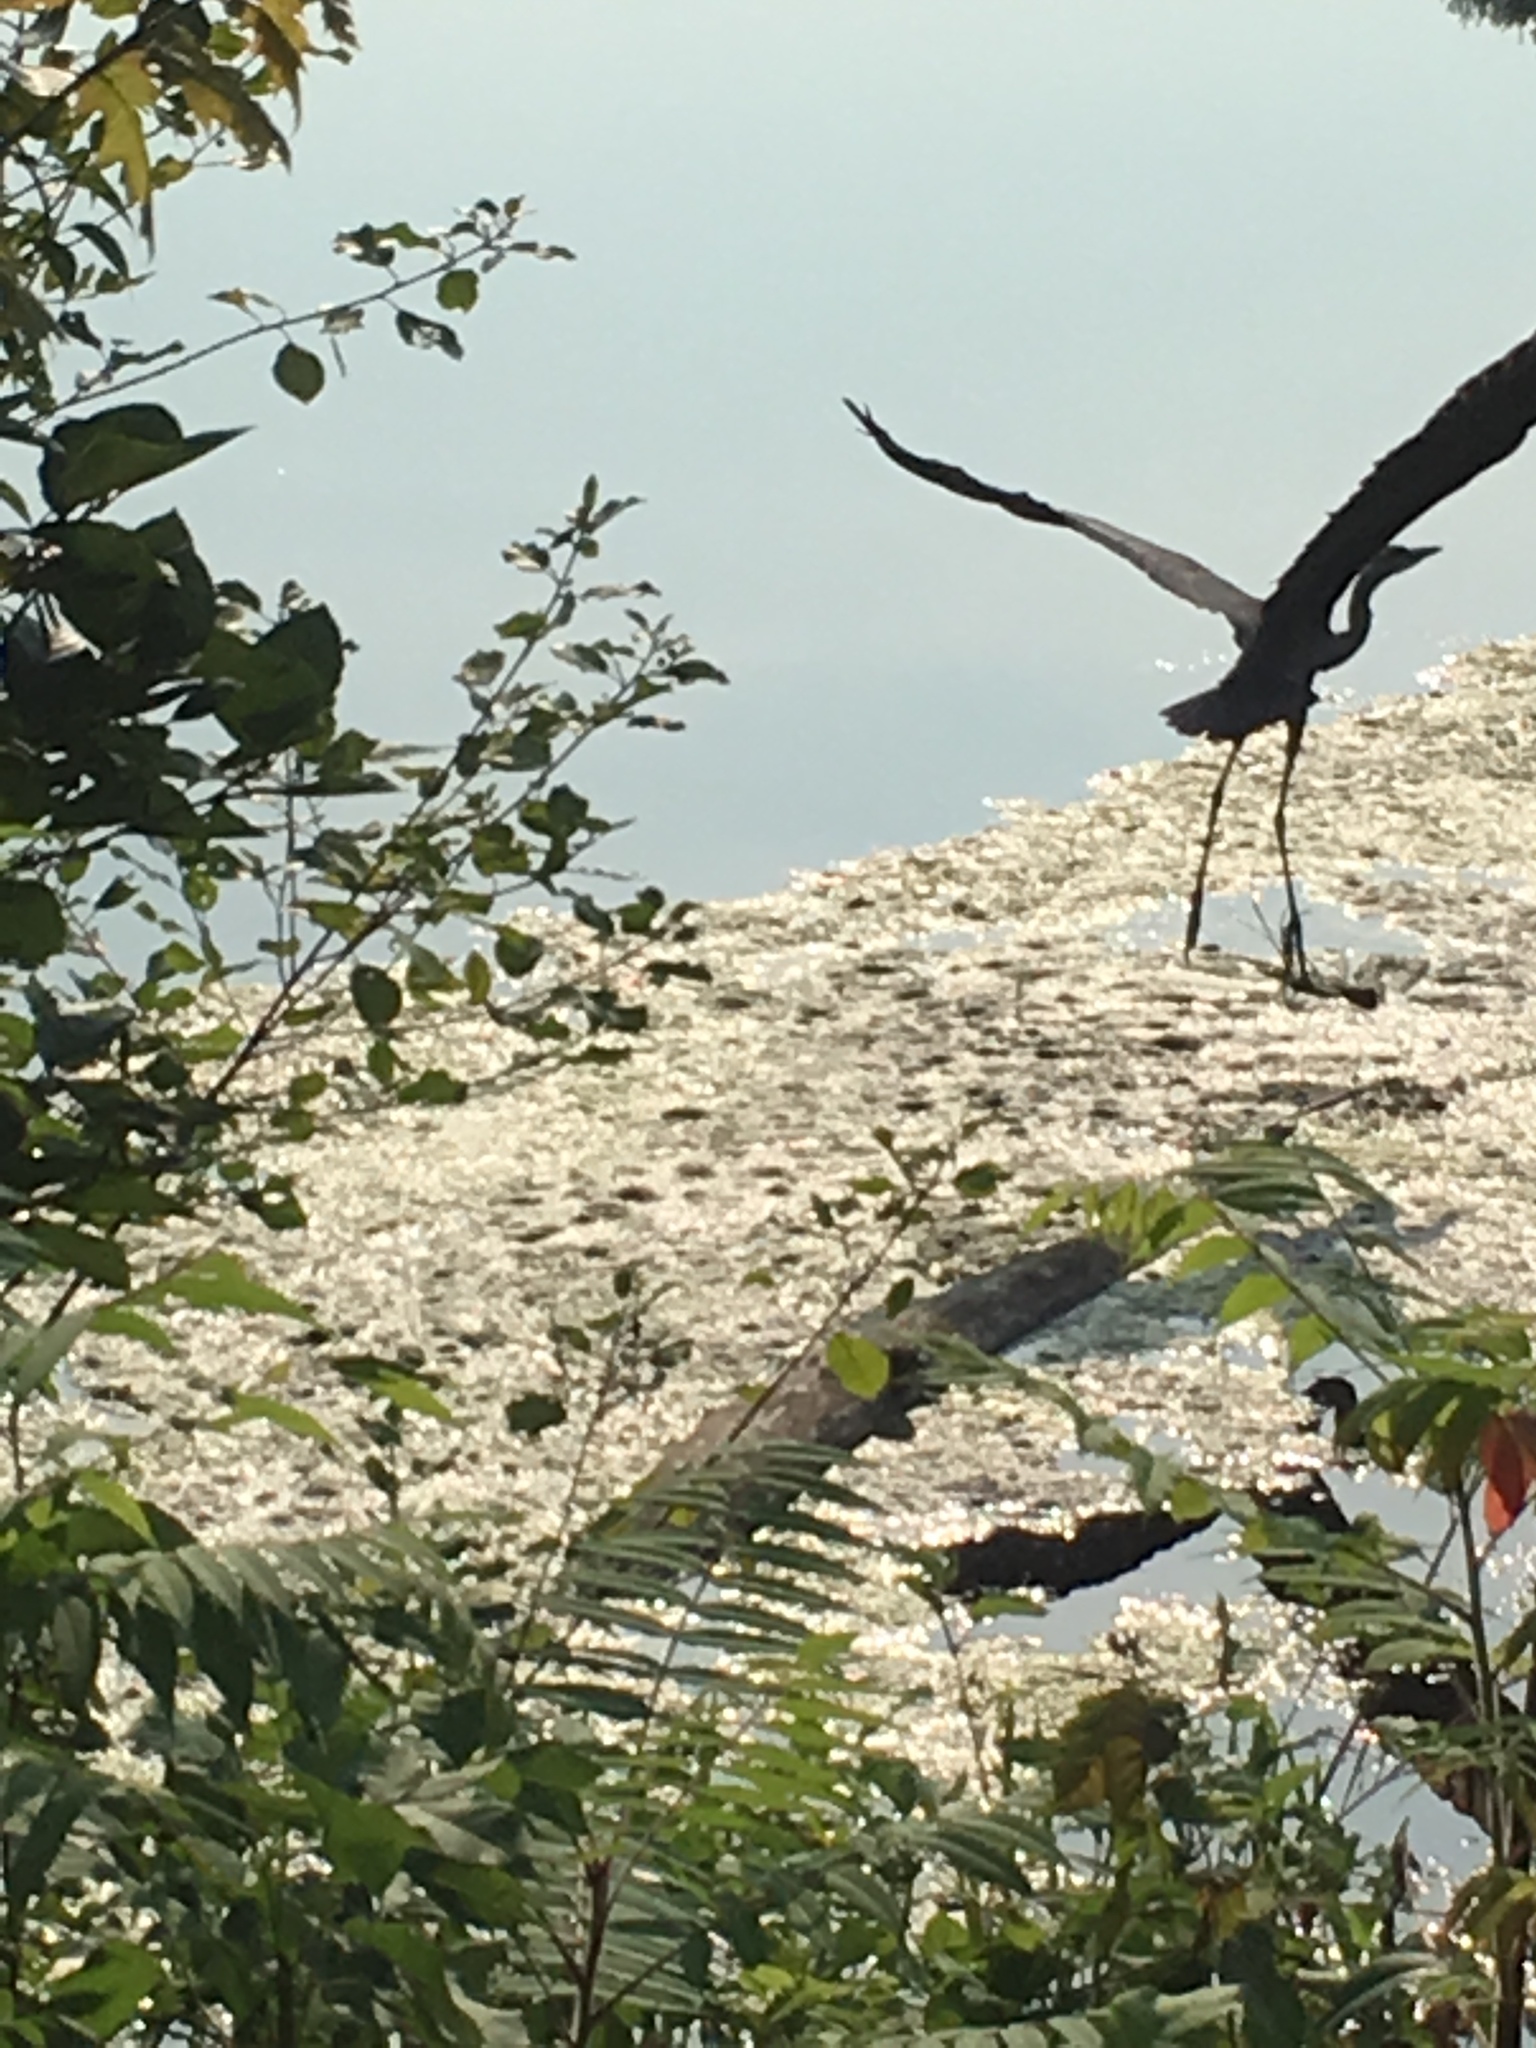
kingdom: Animalia
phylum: Chordata
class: Aves
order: Pelecaniformes
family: Ardeidae
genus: Ardea
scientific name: Ardea herodias
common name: Great blue heron
